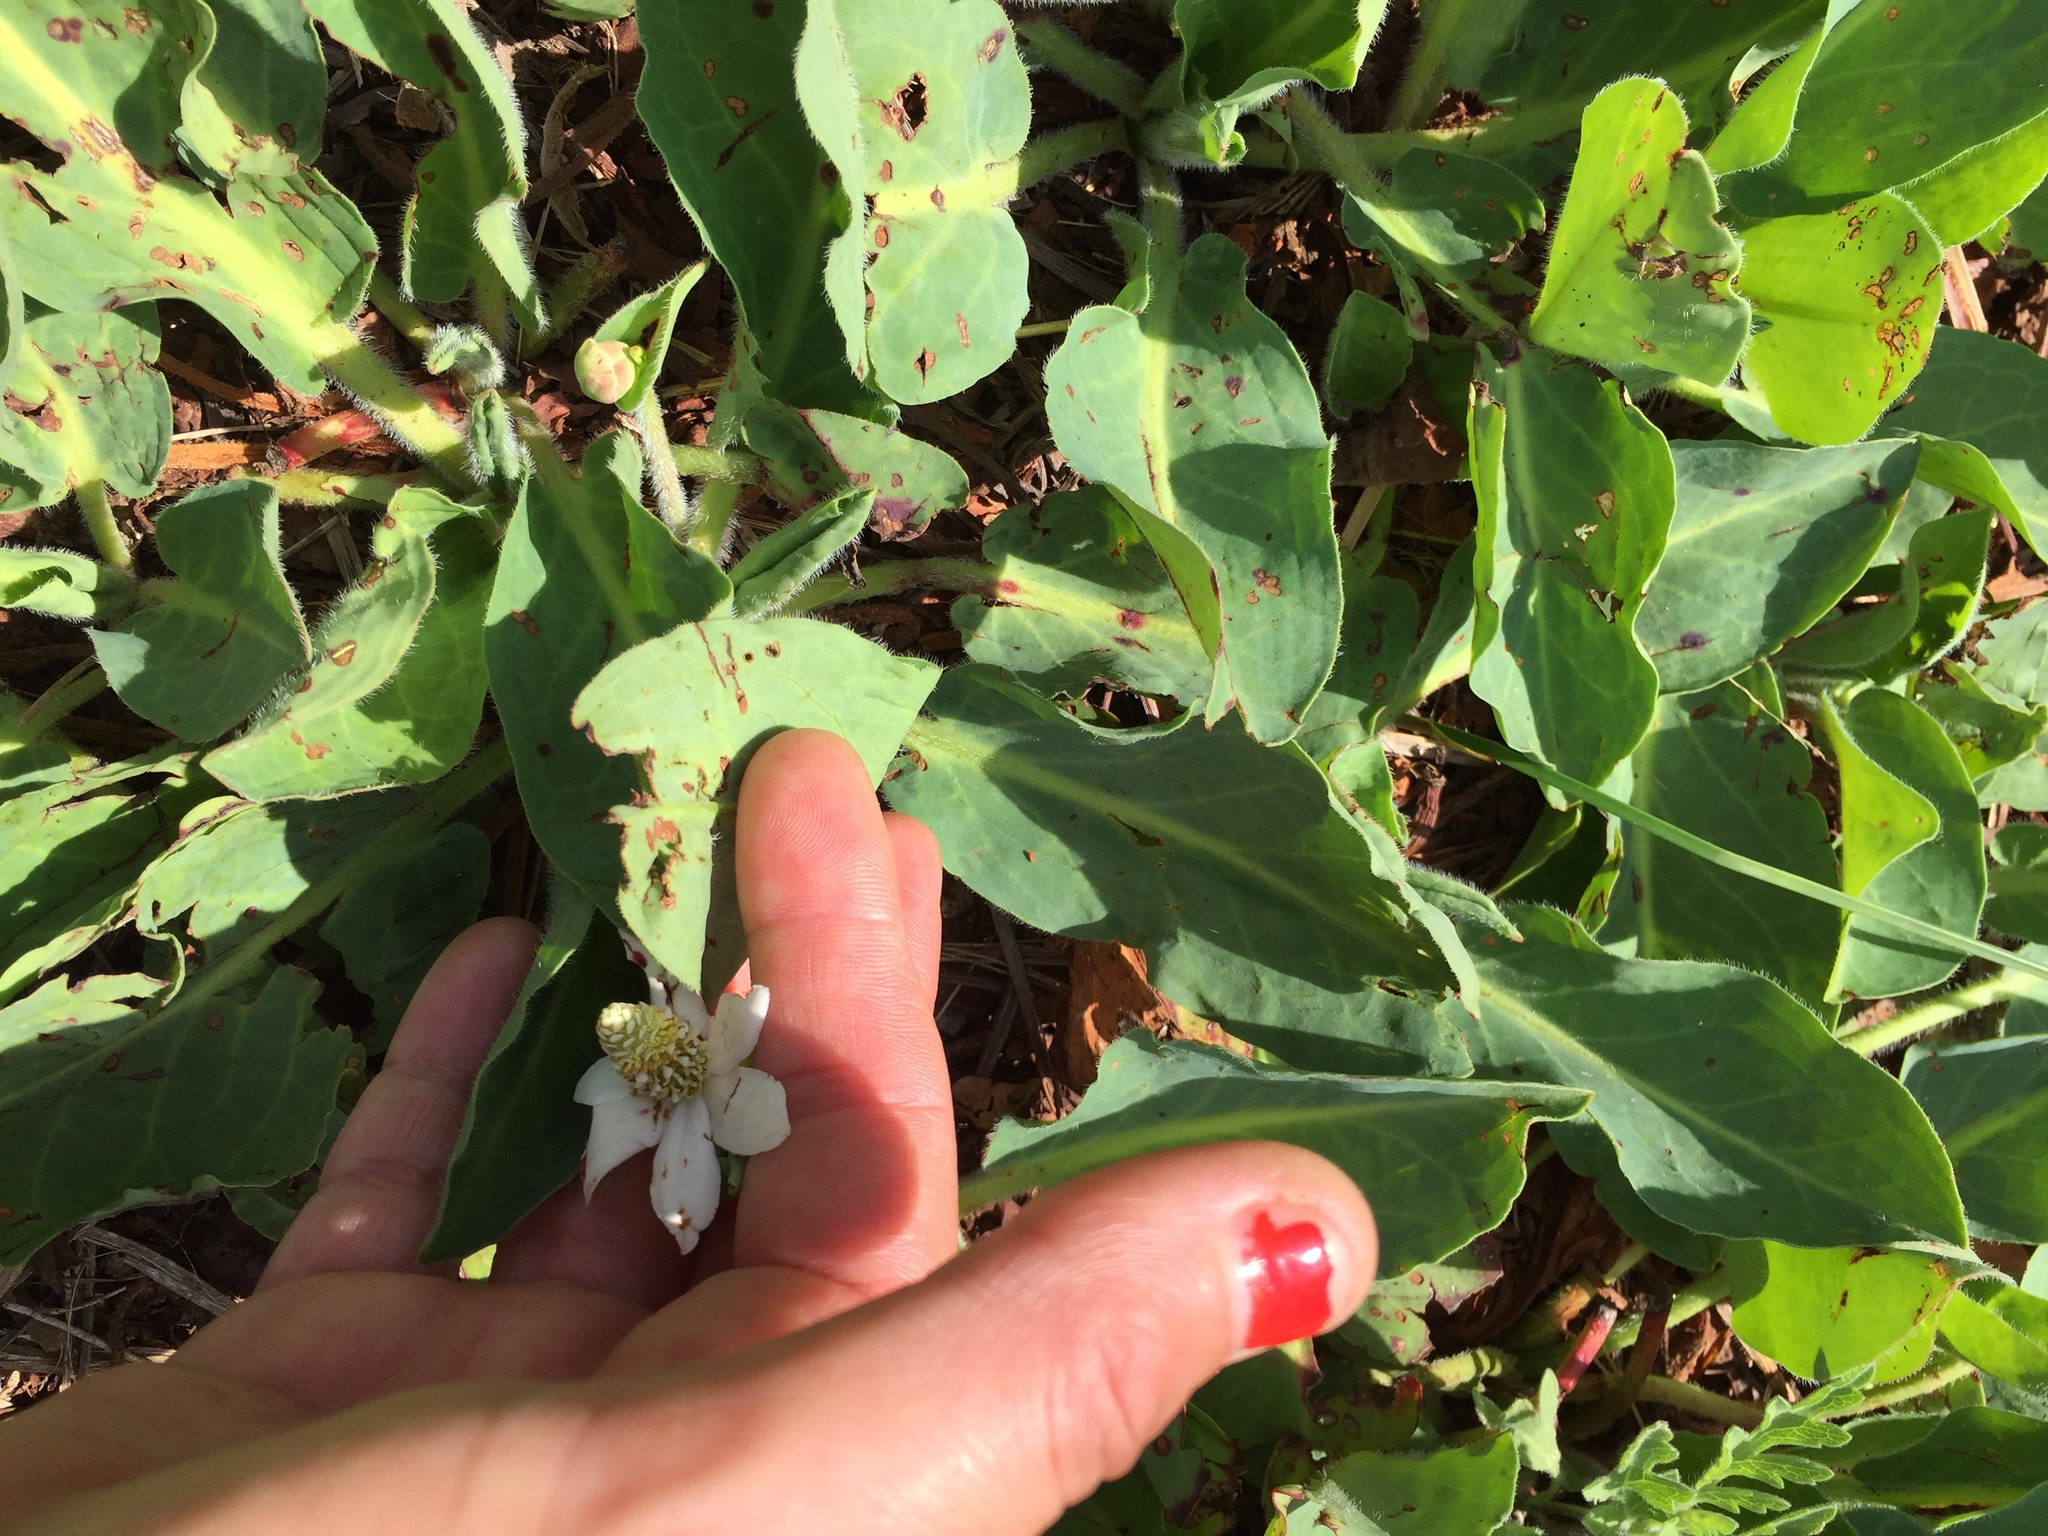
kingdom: Plantae
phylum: Tracheophyta
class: Magnoliopsida
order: Piperales
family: Saururaceae
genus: Anemopsis
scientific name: Anemopsis californica
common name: Apache-beads
